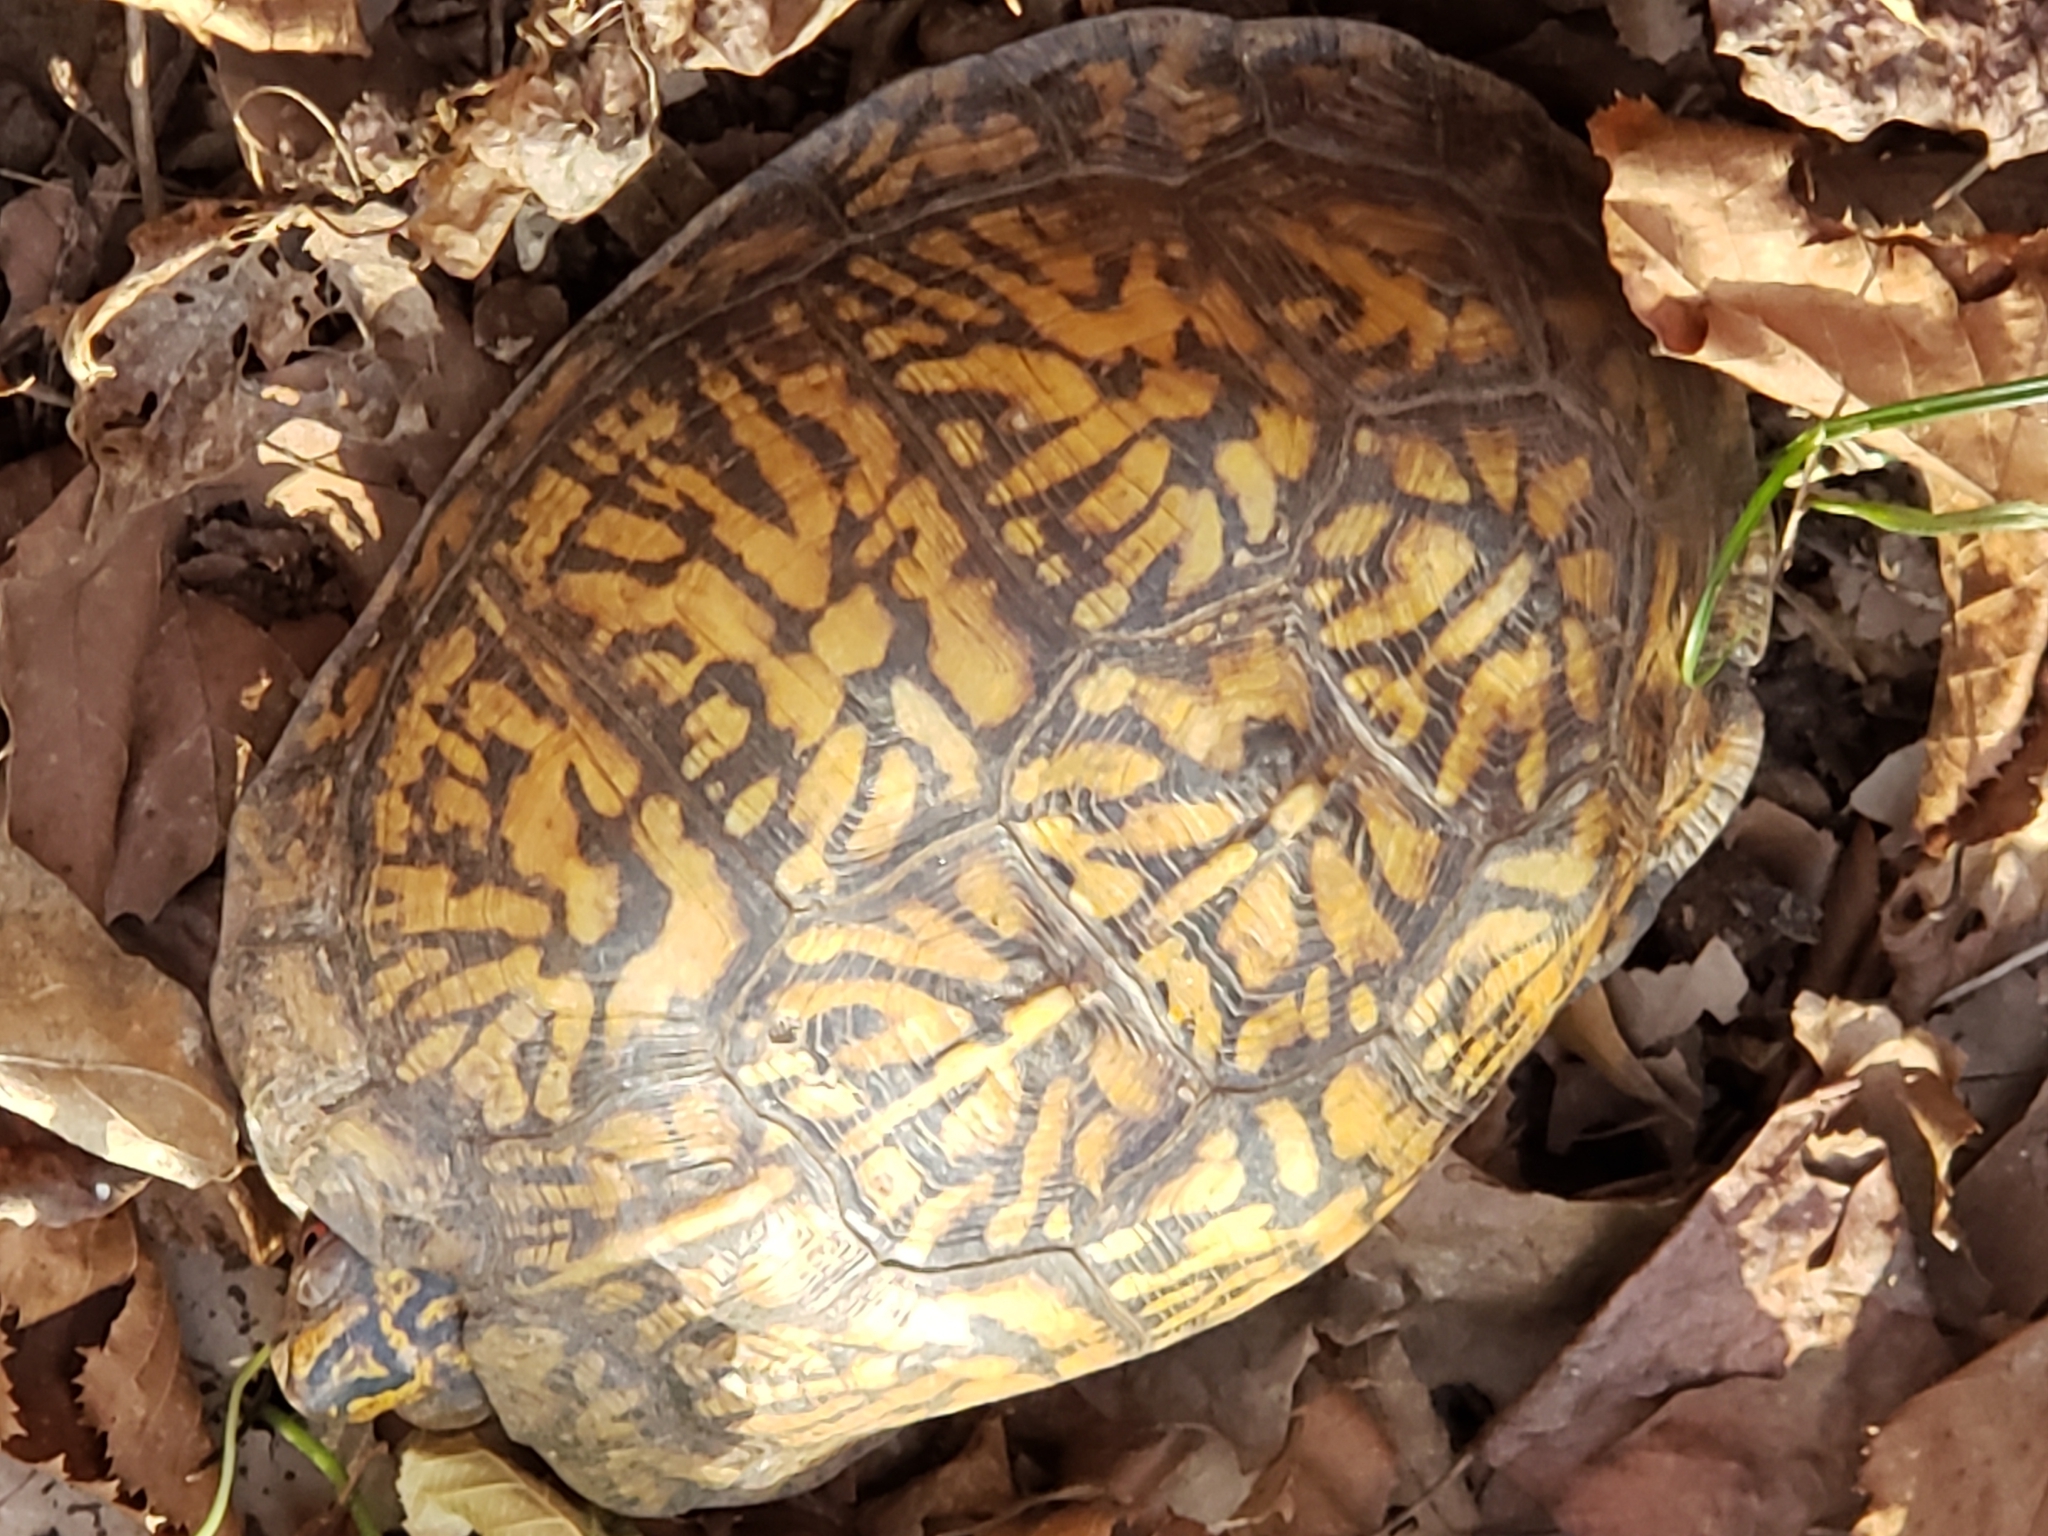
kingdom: Animalia
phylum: Chordata
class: Testudines
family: Emydidae
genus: Terrapene
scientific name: Terrapene carolina
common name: Common box turtle
